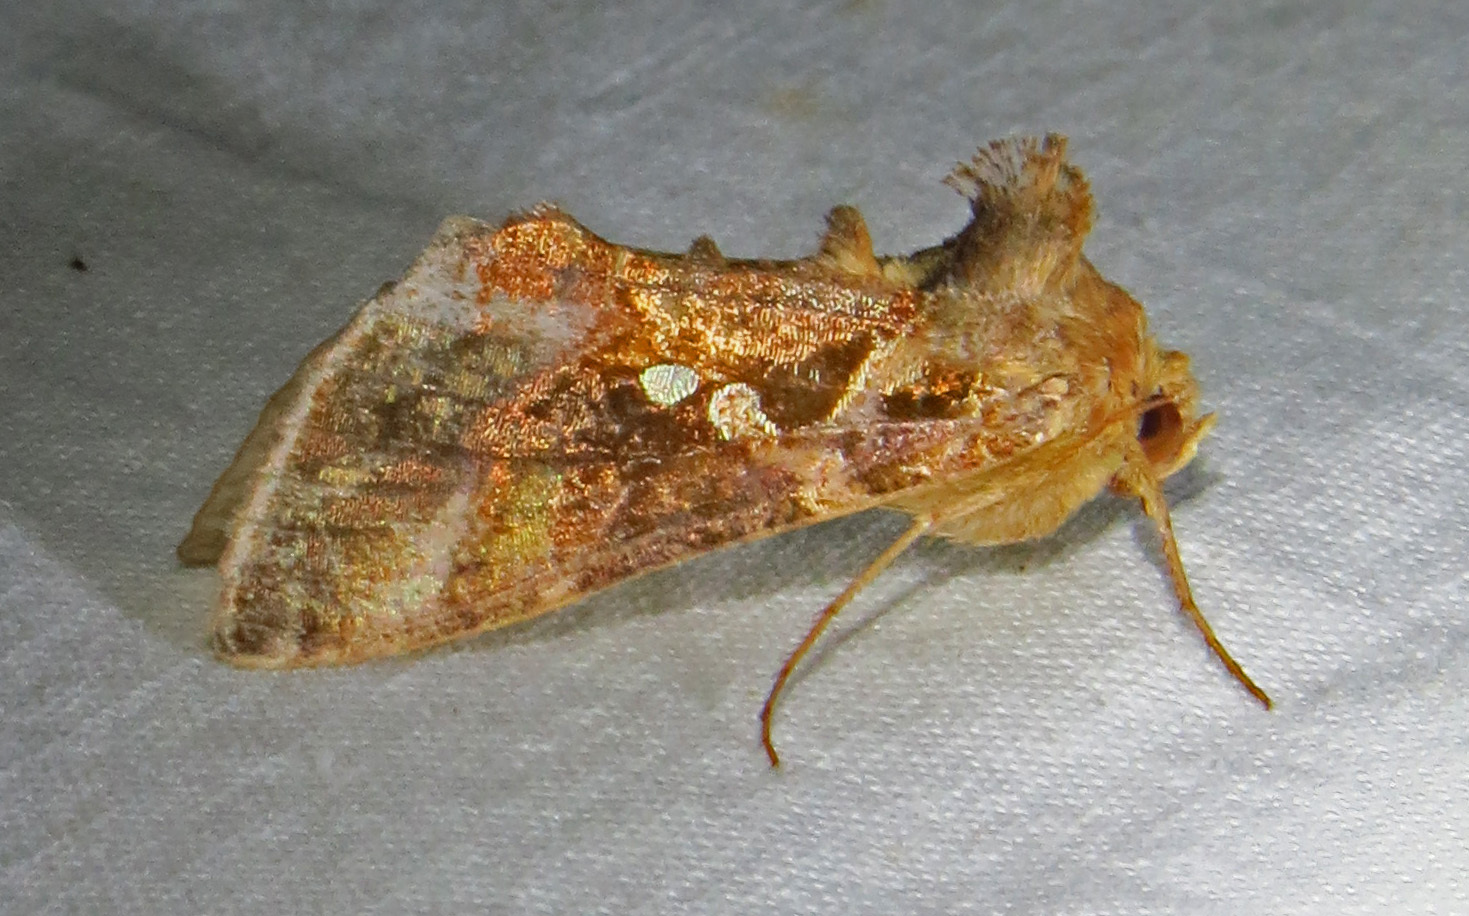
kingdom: Animalia
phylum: Arthropoda
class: Insecta
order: Lepidoptera
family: Noctuidae
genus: Chrysodeixis
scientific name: Chrysodeixis includens
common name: Cutworm moth
